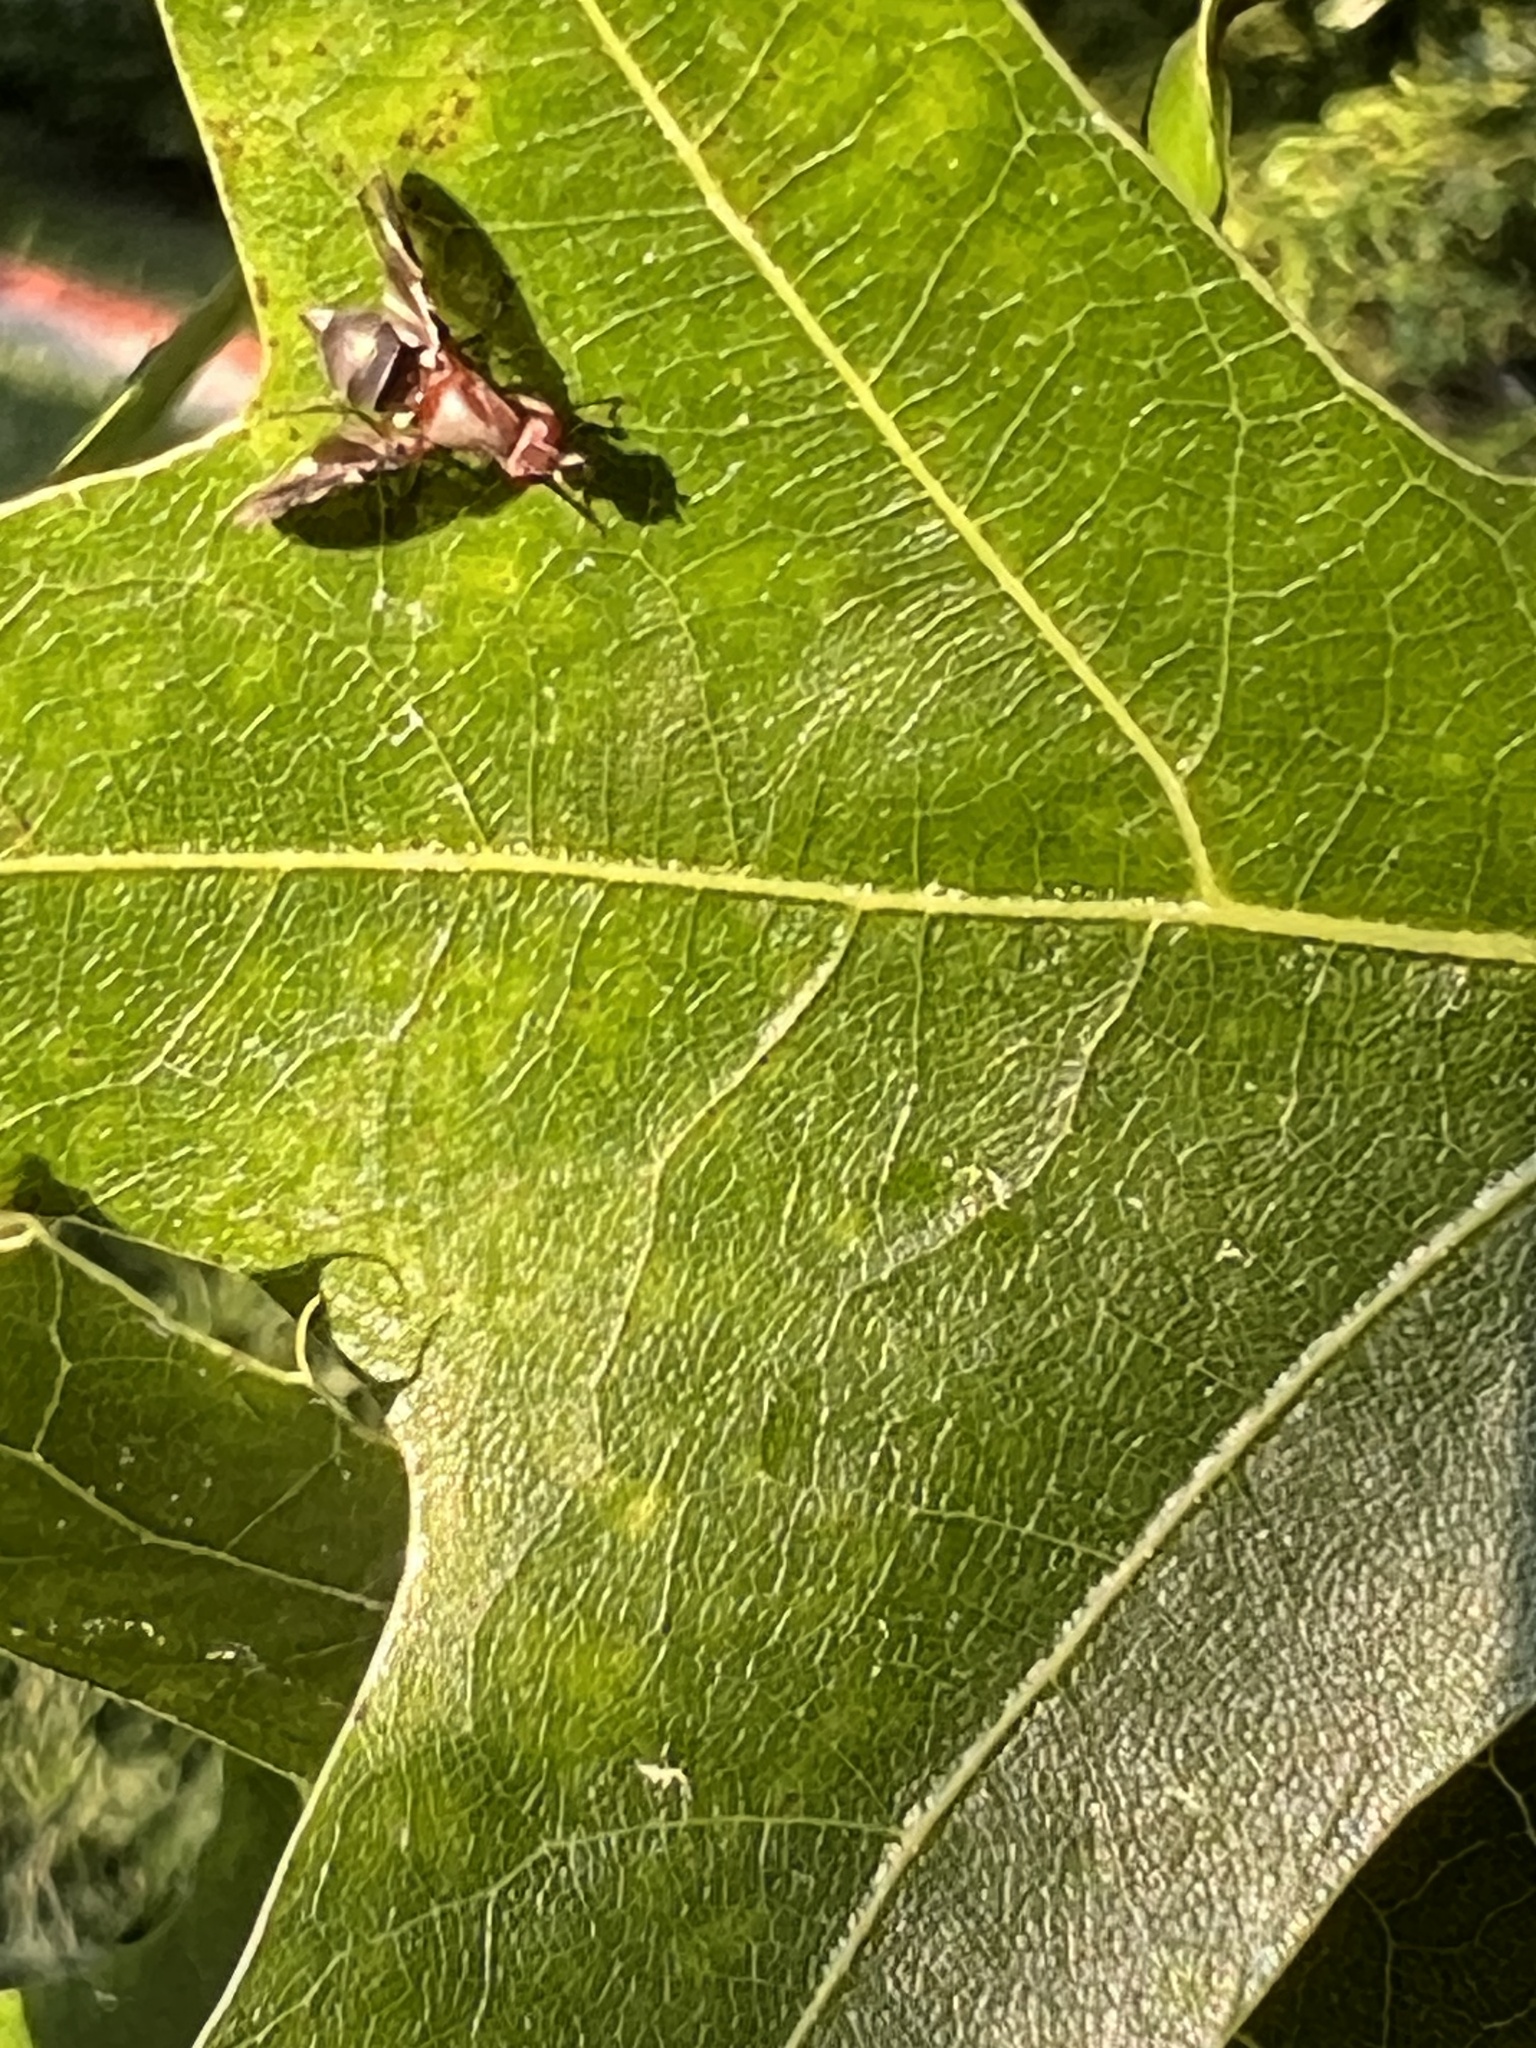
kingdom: Animalia
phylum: Arthropoda
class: Insecta
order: Diptera
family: Ulidiidae
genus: Delphinia
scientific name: Delphinia picta
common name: Common picture-winged fly
